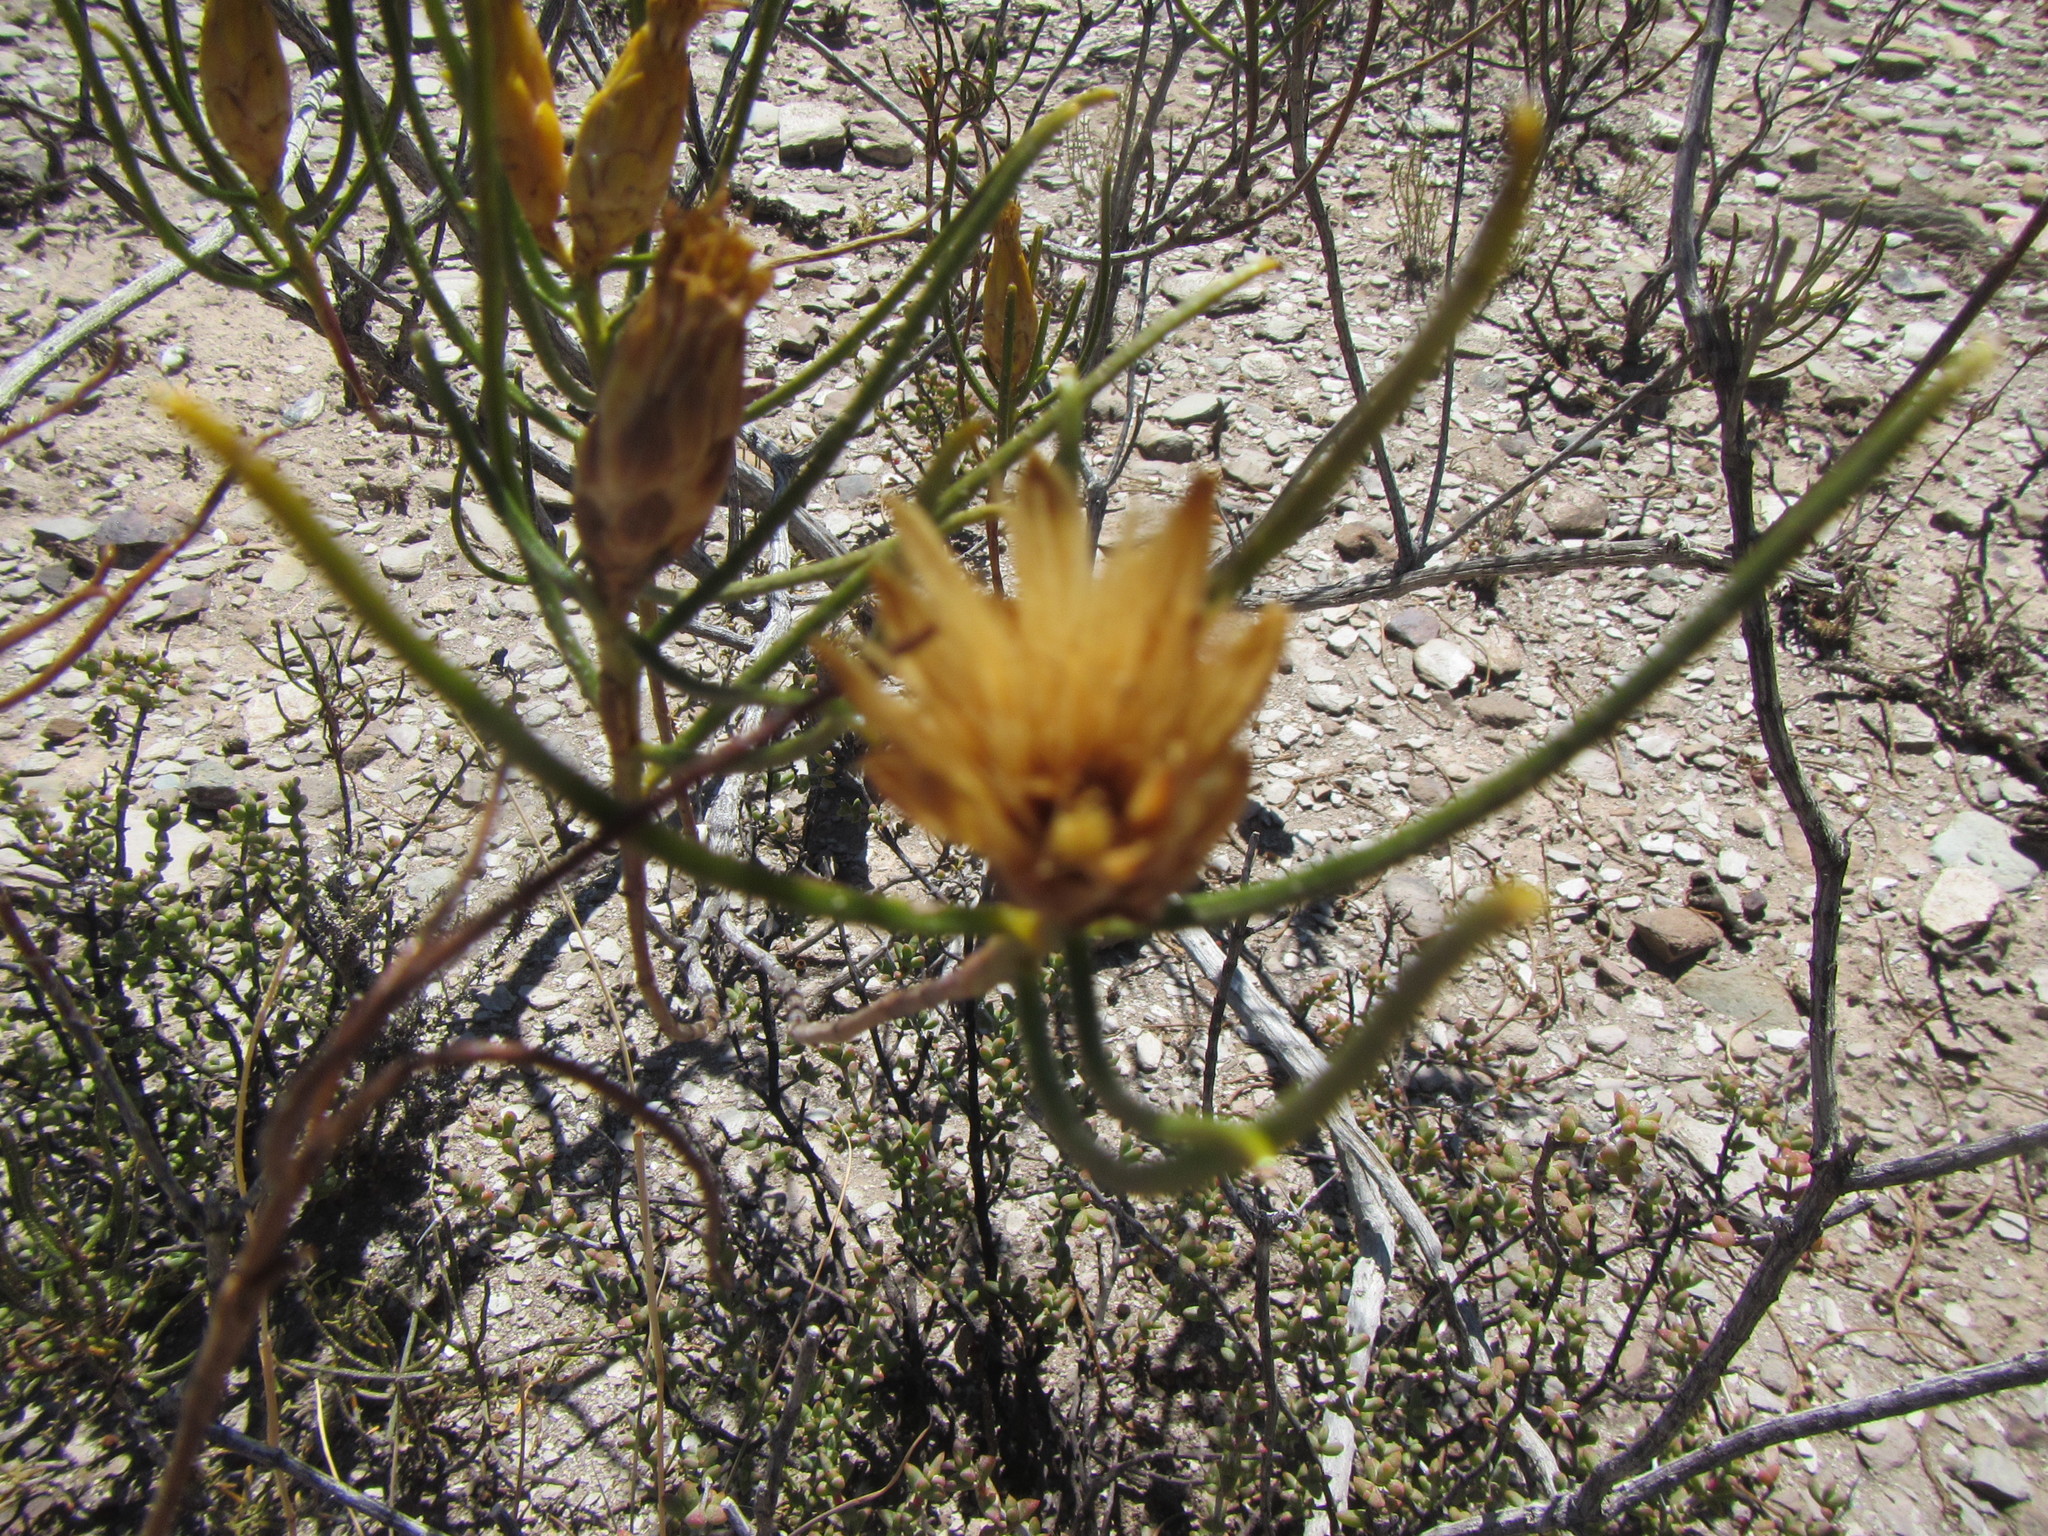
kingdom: Plantae
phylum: Tracheophyta
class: Magnoliopsida
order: Asterales
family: Asteraceae
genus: Pteronia
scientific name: Pteronia flexicaulis
